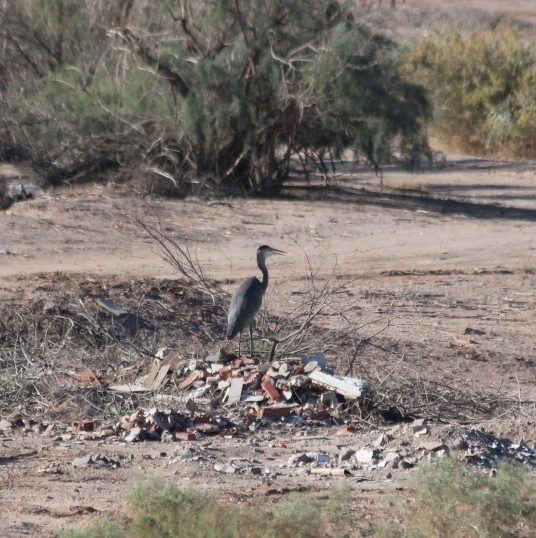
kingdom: Animalia
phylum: Chordata
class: Aves
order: Pelecaniformes
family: Ardeidae
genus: Ardea
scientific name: Ardea herodias
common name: Great blue heron
